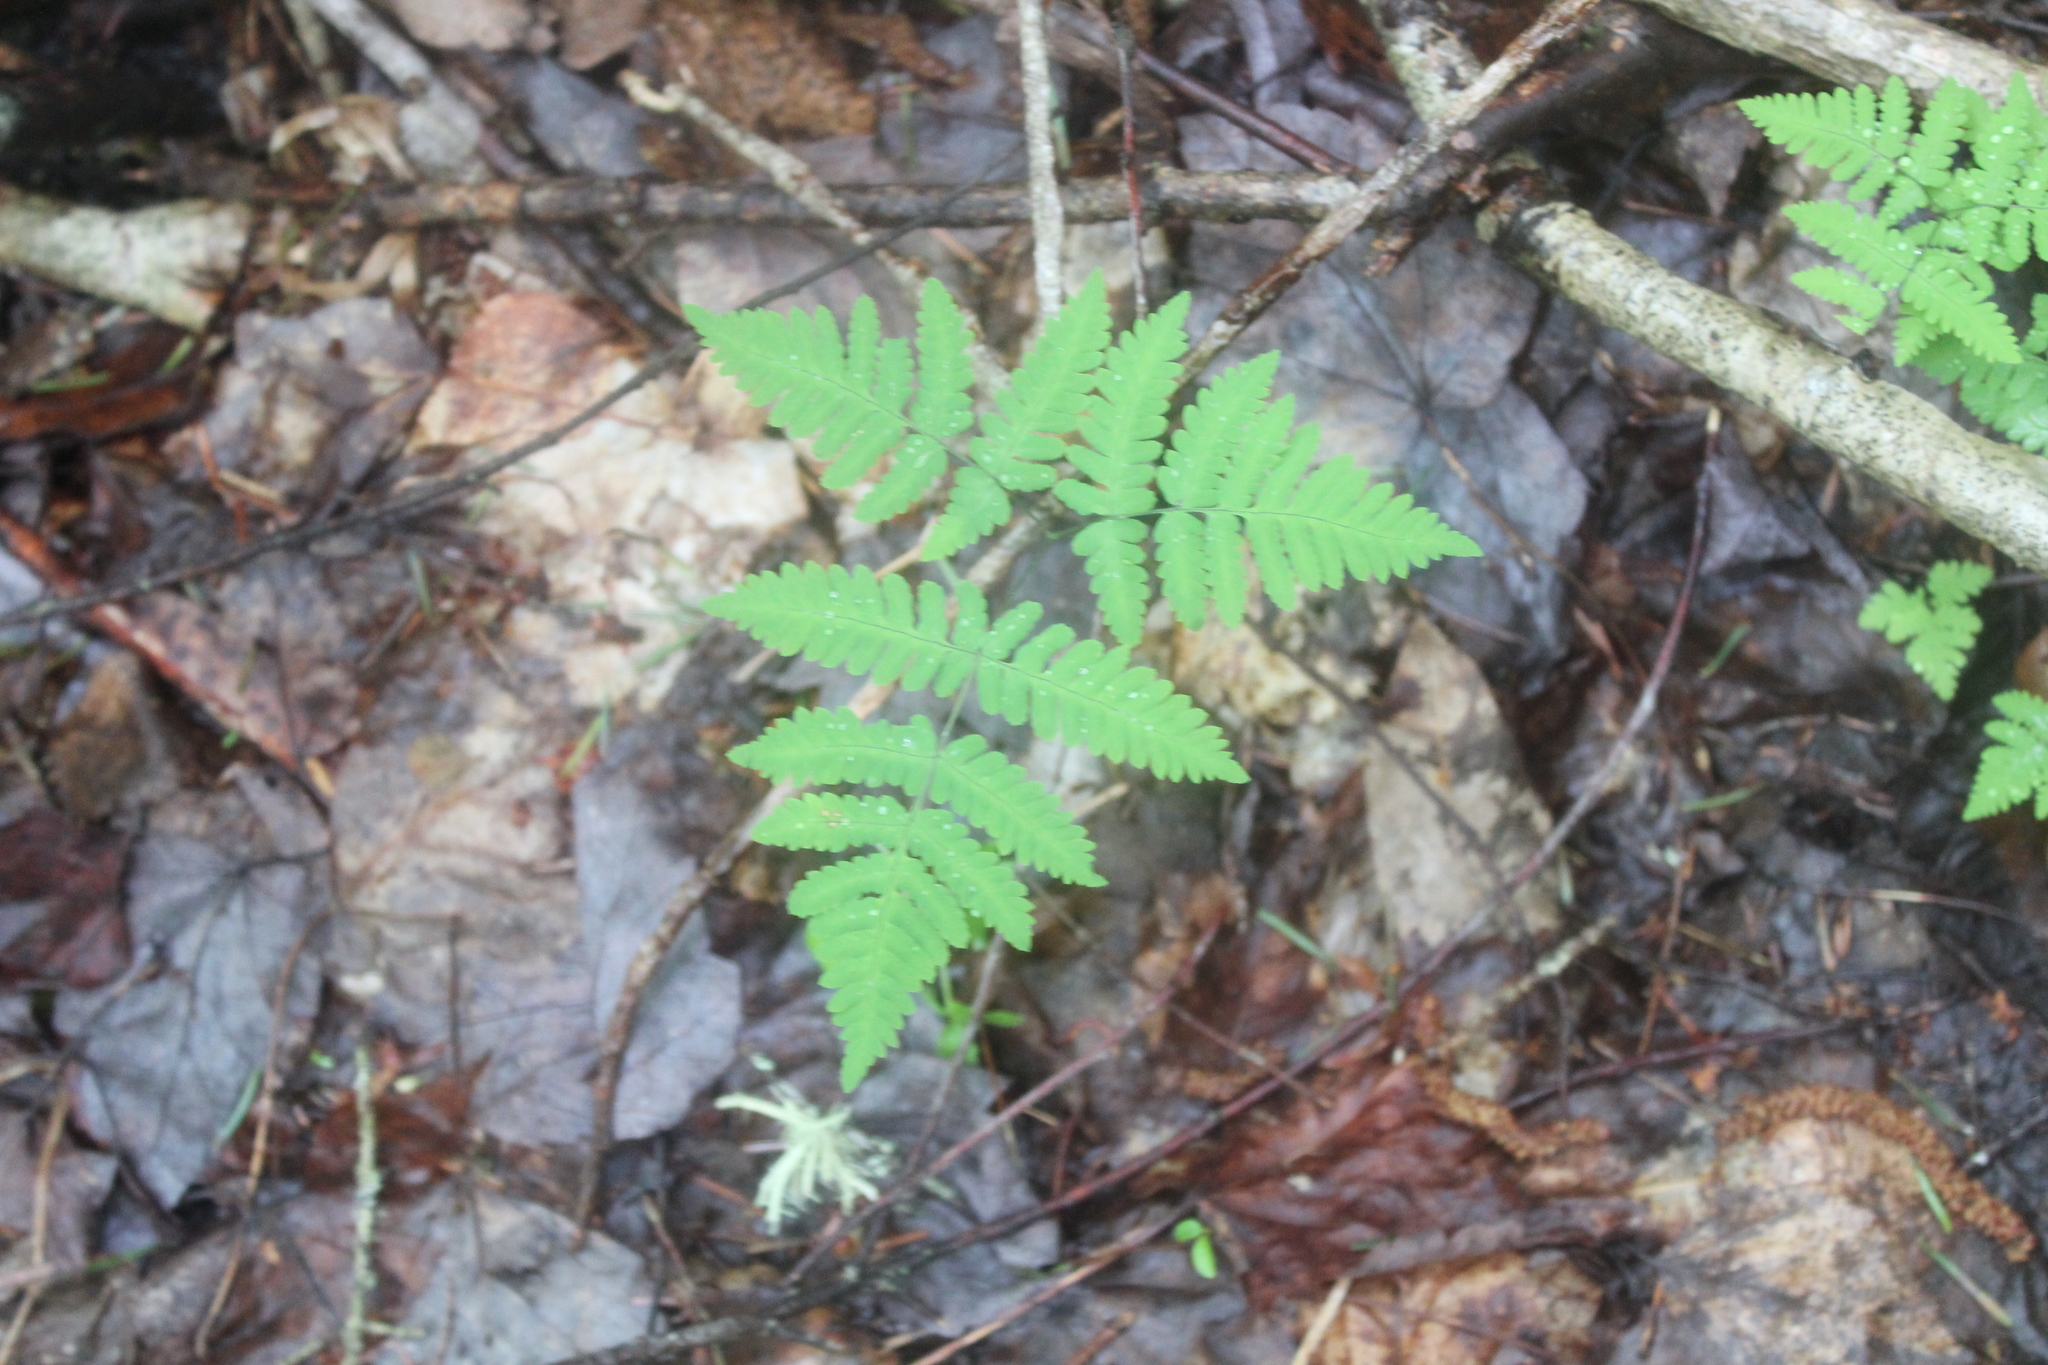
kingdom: Plantae
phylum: Tracheophyta
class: Polypodiopsida
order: Polypodiales
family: Cystopteridaceae
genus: Gymnocarpium
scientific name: Gymnocarpium dryopteris
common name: Oak fern
